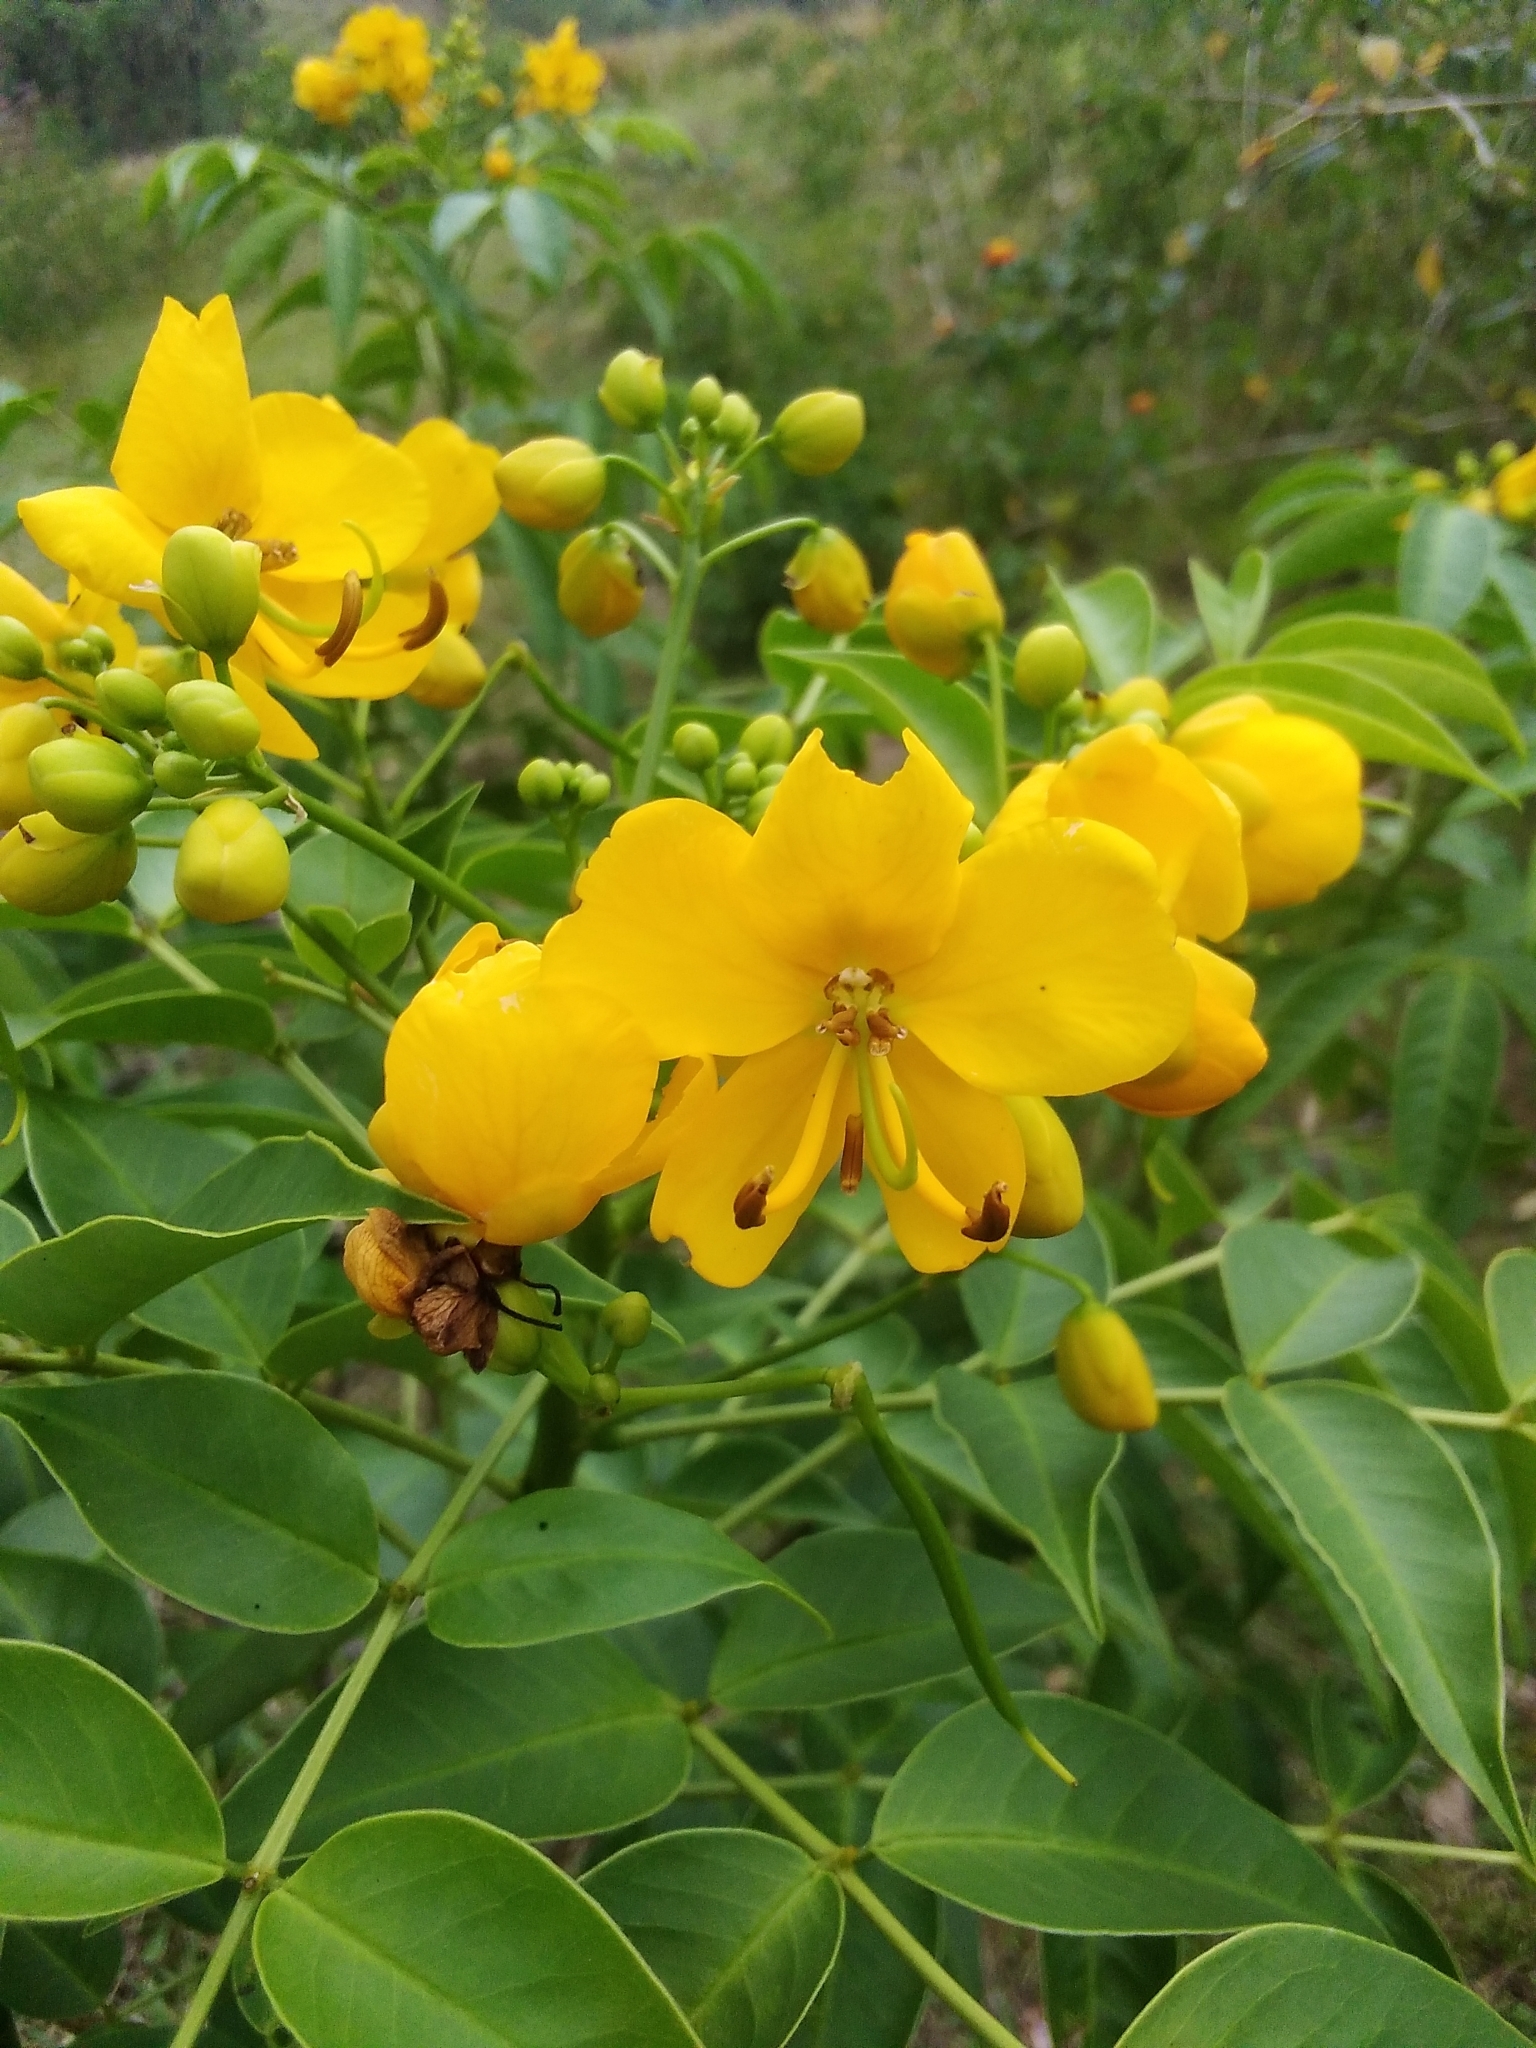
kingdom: Plantae
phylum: Tracheophyta
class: Magnoliopsida
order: Fabales
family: Fabaceae
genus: Senna
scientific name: Senna septemtrionalis
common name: Arsenic bush
